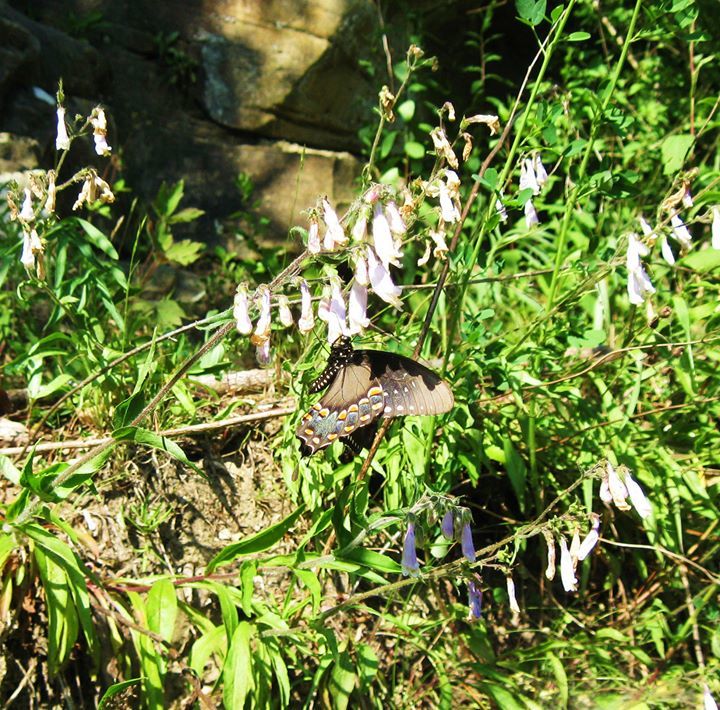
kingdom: Animalia
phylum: Arthropoda
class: Insecta
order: Lepidoptera
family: Papilionidae
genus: Papilio
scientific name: Papilio troilus
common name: Spicebush swallowtail
